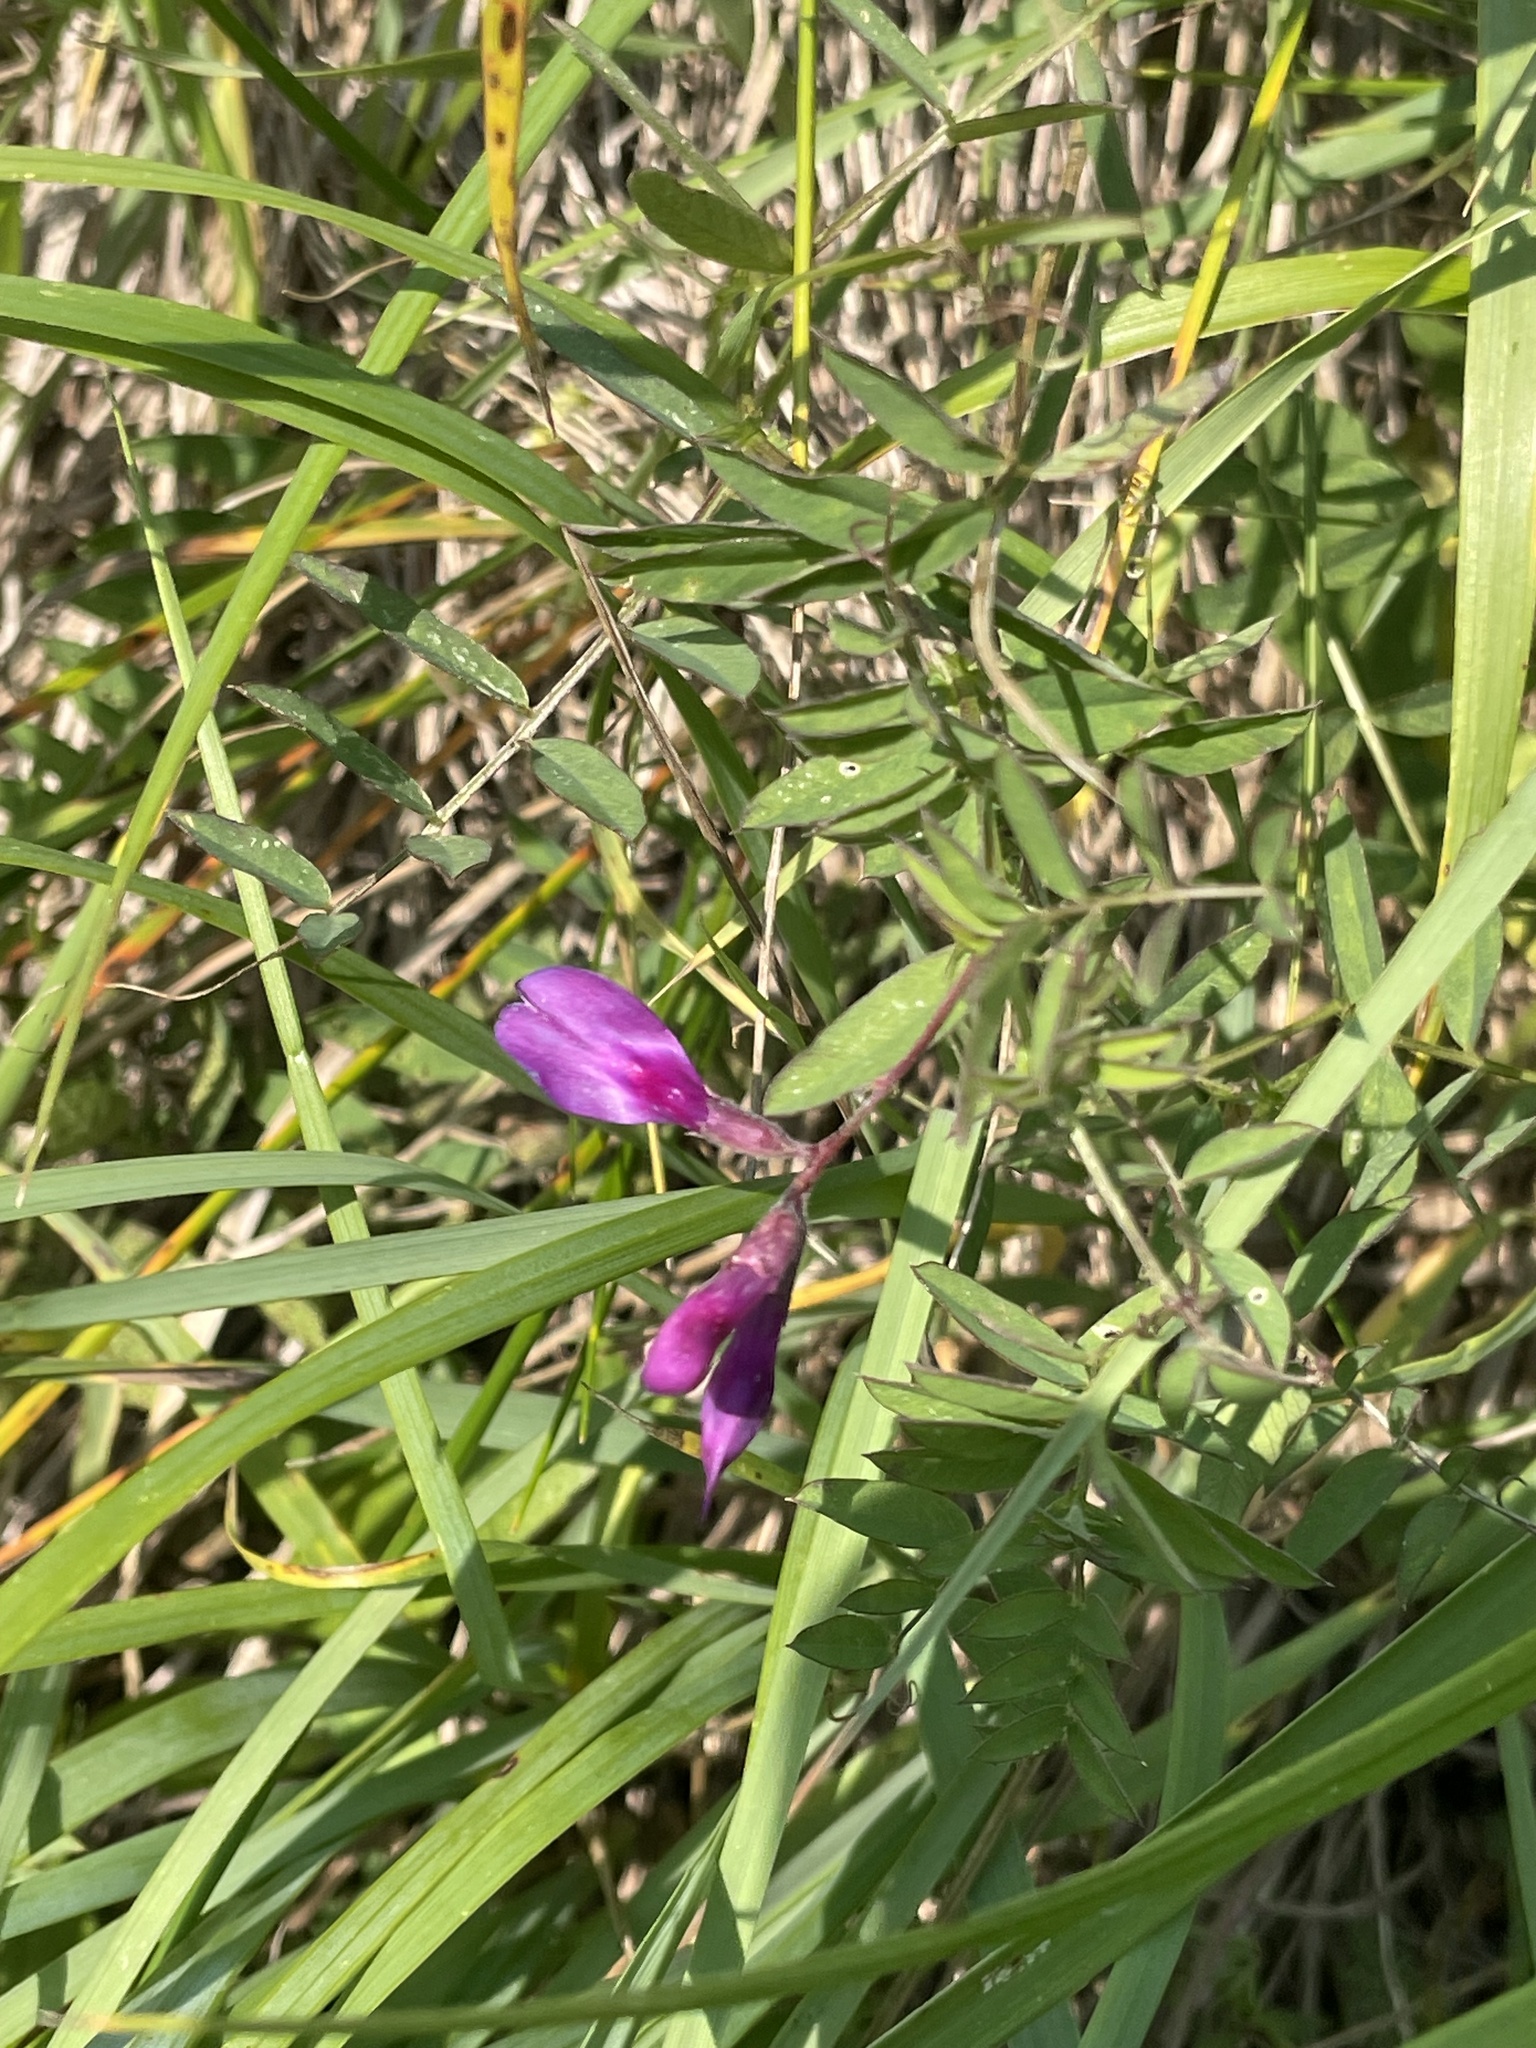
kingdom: Plantae
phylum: Tracheophyta
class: Magnoliopsida
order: Fabales
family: Fabaceae
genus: Vicia
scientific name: Vicia americana
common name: American vetch
